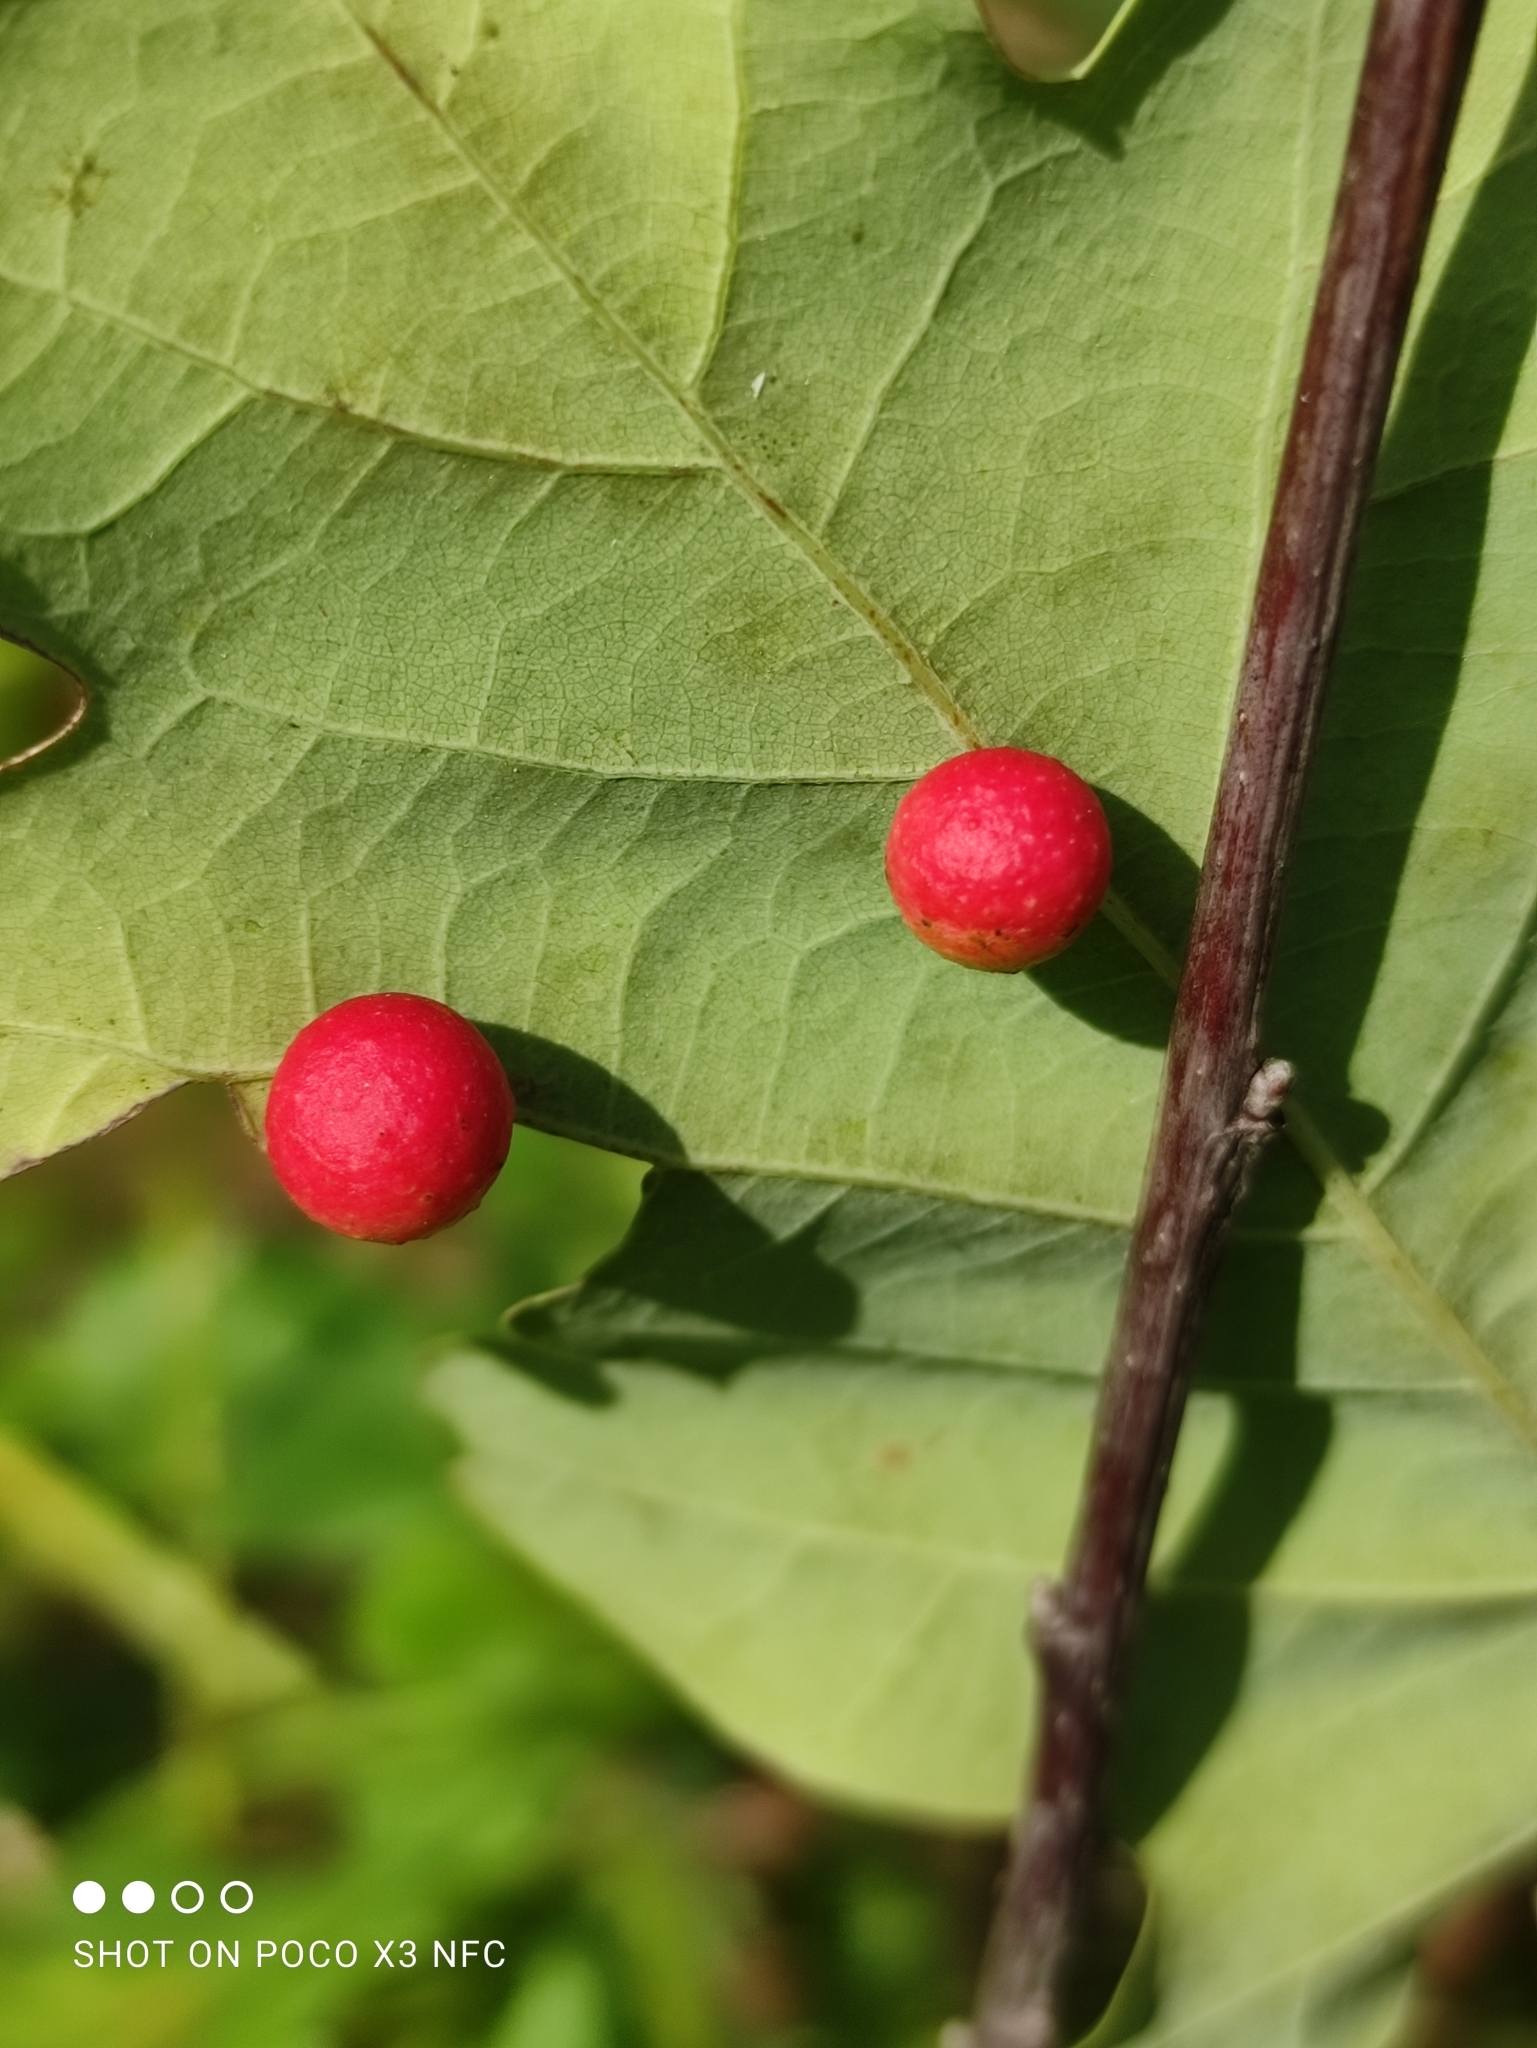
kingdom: Animalia
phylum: Arthropoda
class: Insecta
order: Hymenoptera
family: Cynipidae
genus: Cynips
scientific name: Cynips quercusfolii
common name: Cherry gall
